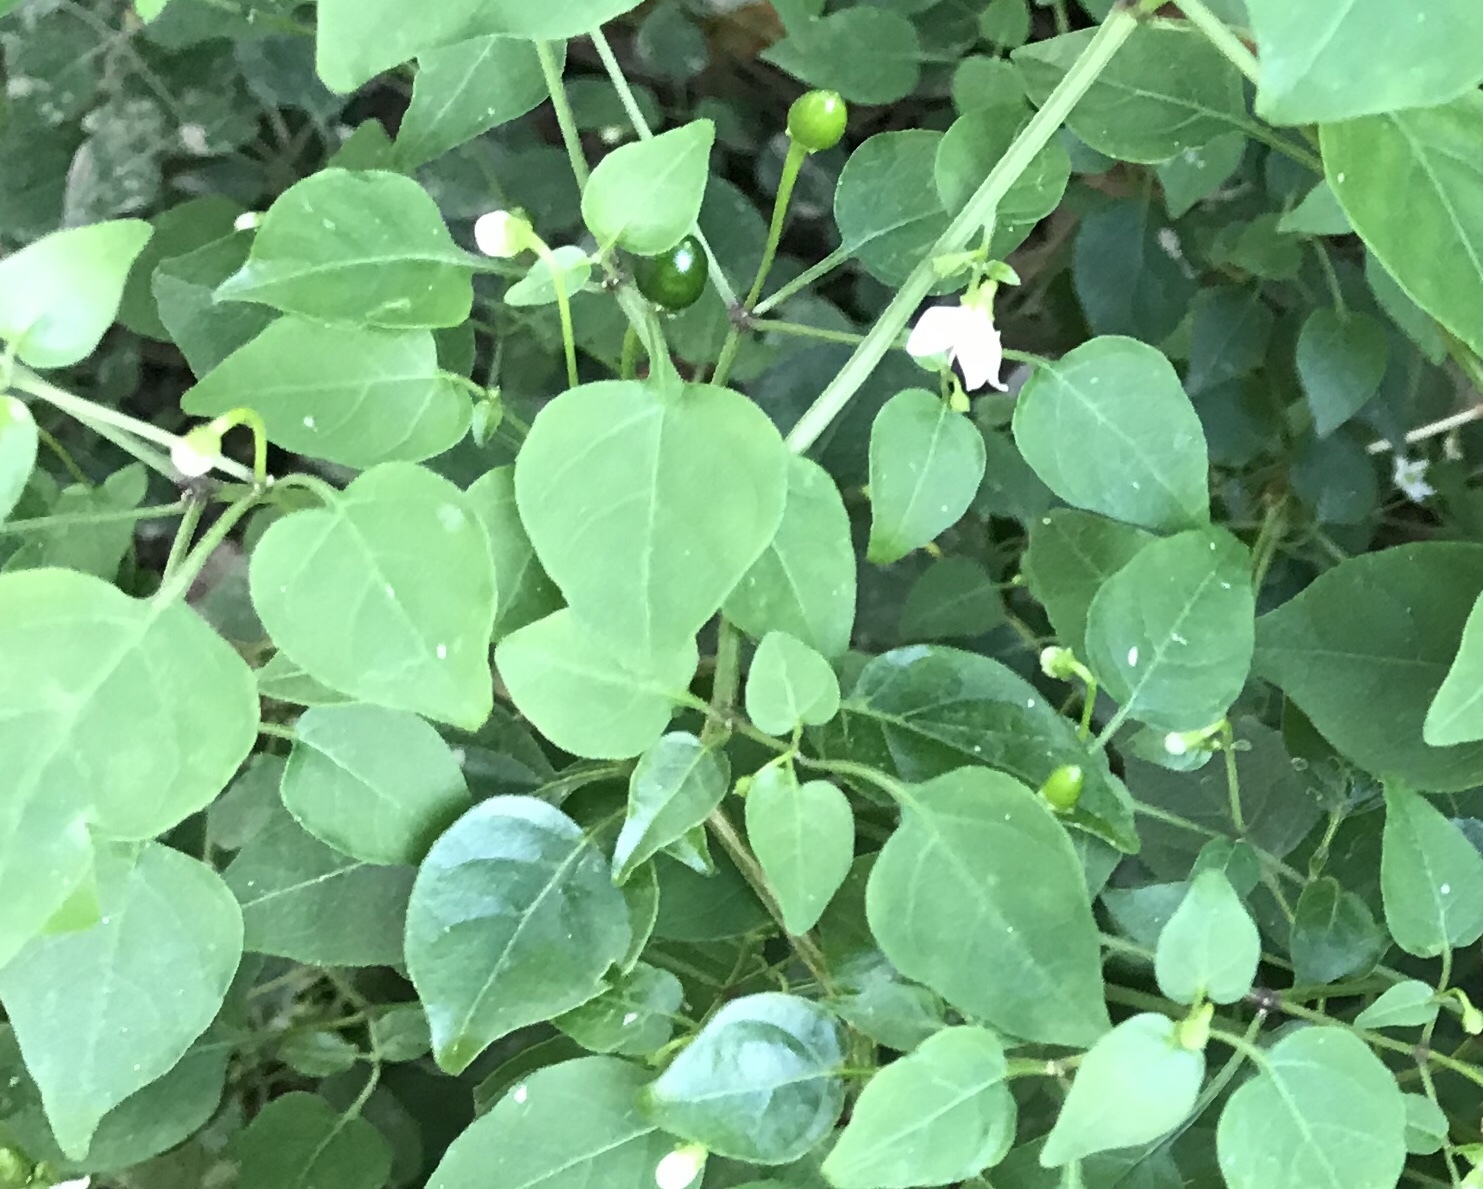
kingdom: Plantae
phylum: Tracheophyta
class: Magnoliopsida
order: Solanales
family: Solanaceae
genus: Capsicum
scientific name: Capsicum annuum
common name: Sweet pepper
